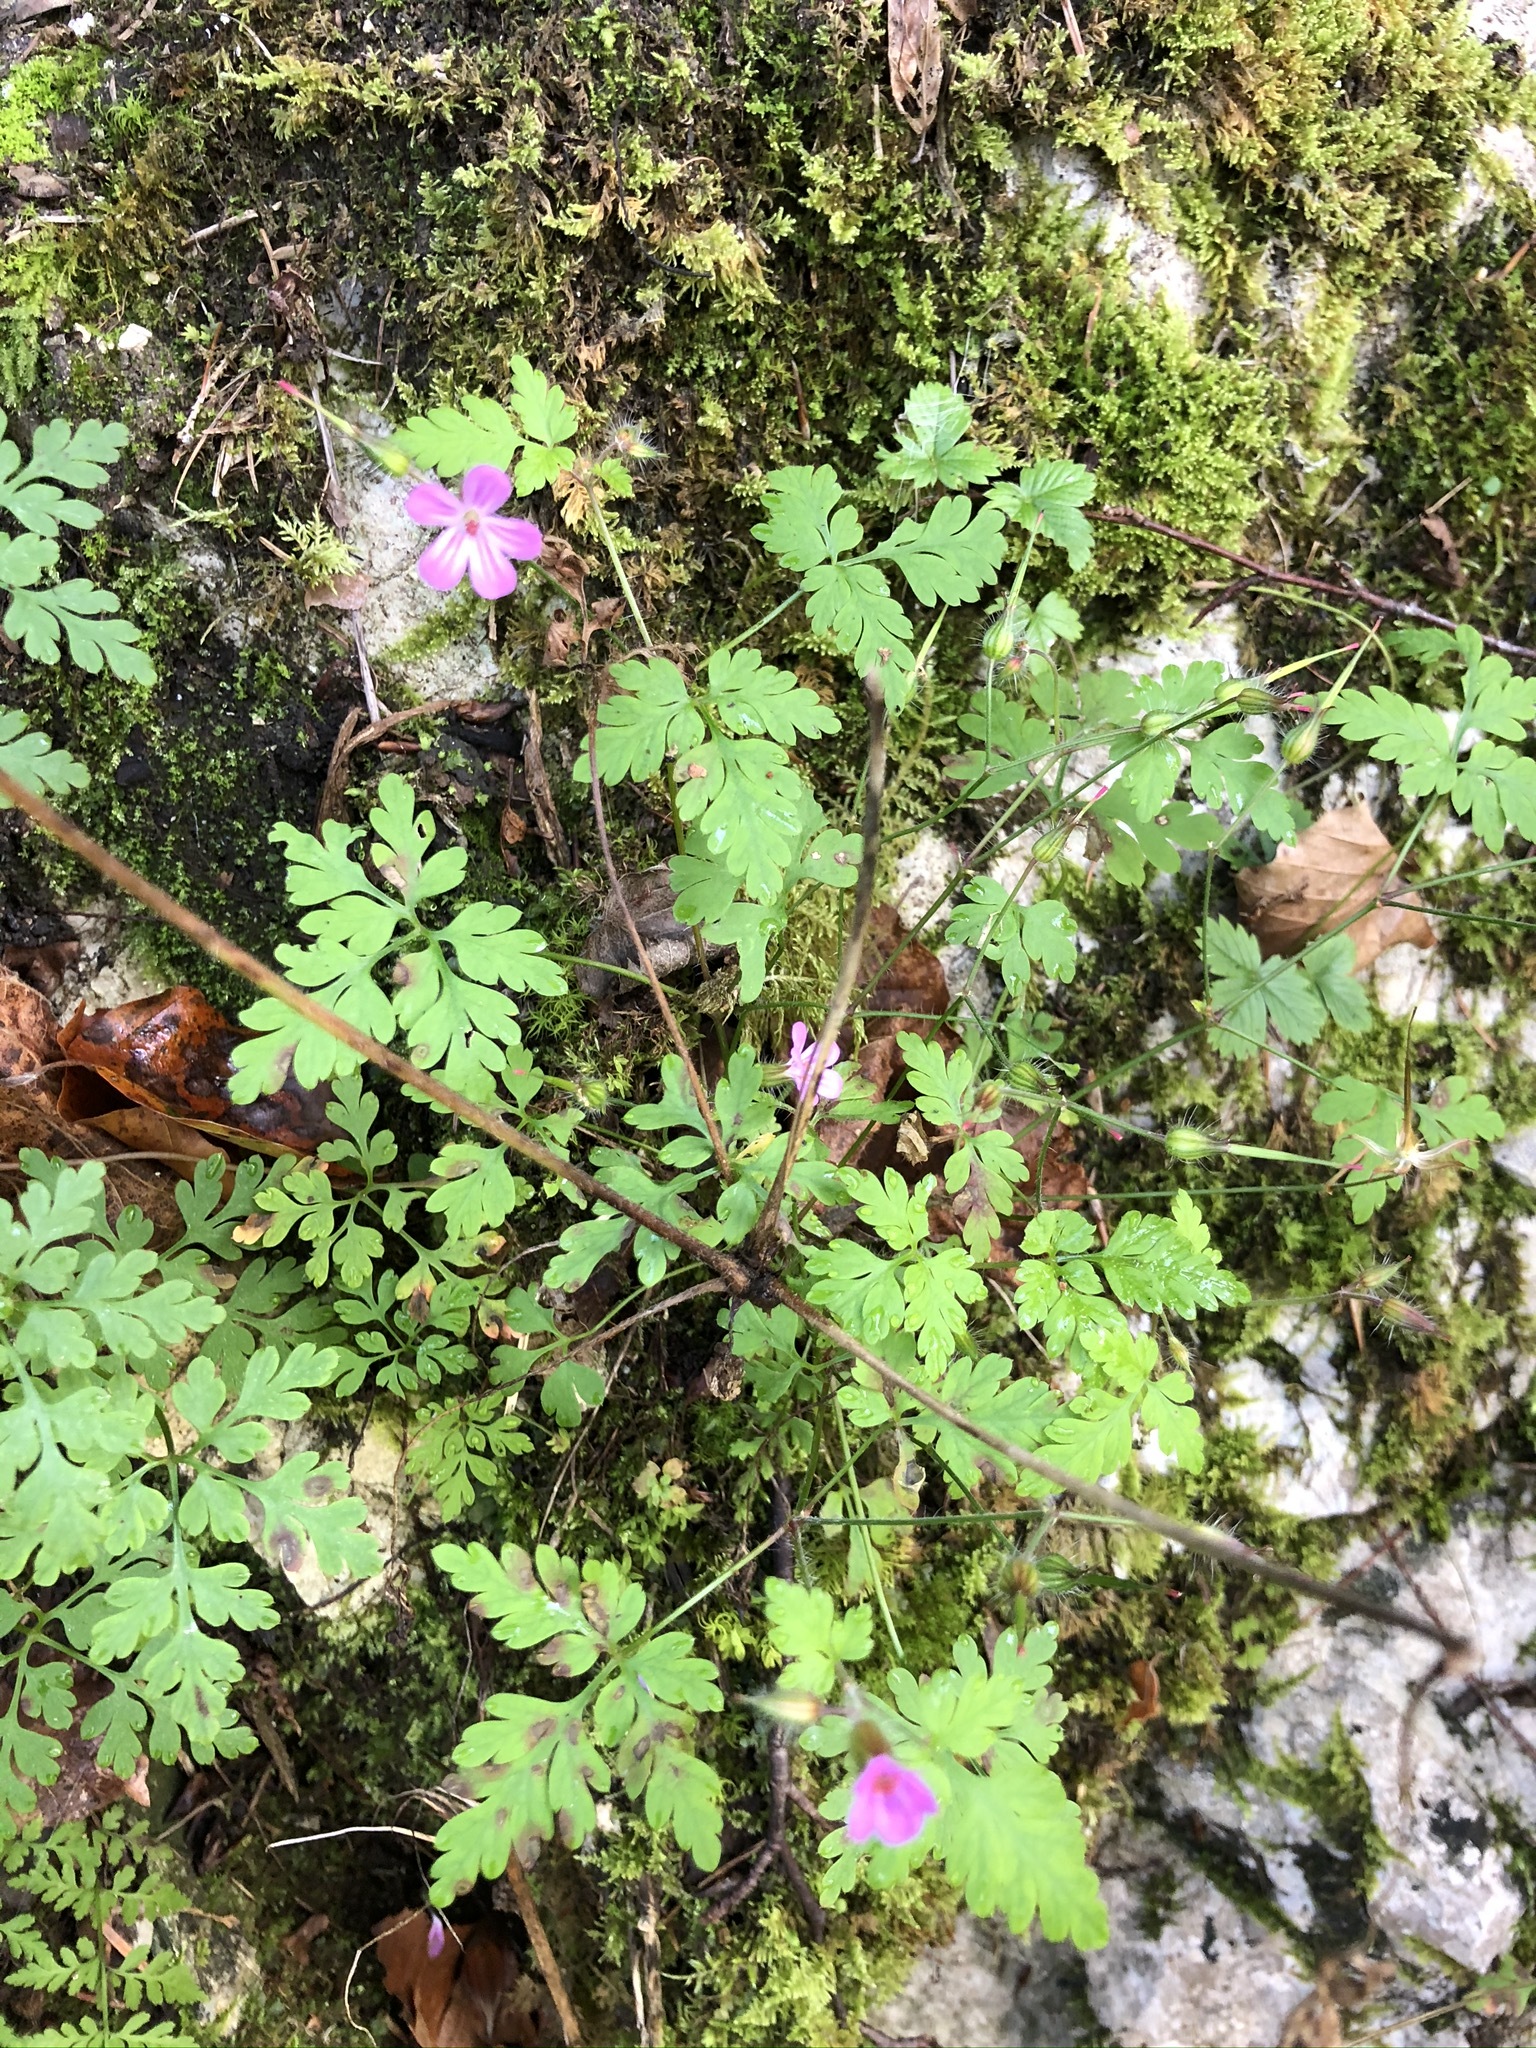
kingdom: Plantae
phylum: Tracheophyta
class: Magnoliopsida
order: Geraniales
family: Geraniaceae
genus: Geranium
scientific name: Geranium robertianum
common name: Herb-robert
